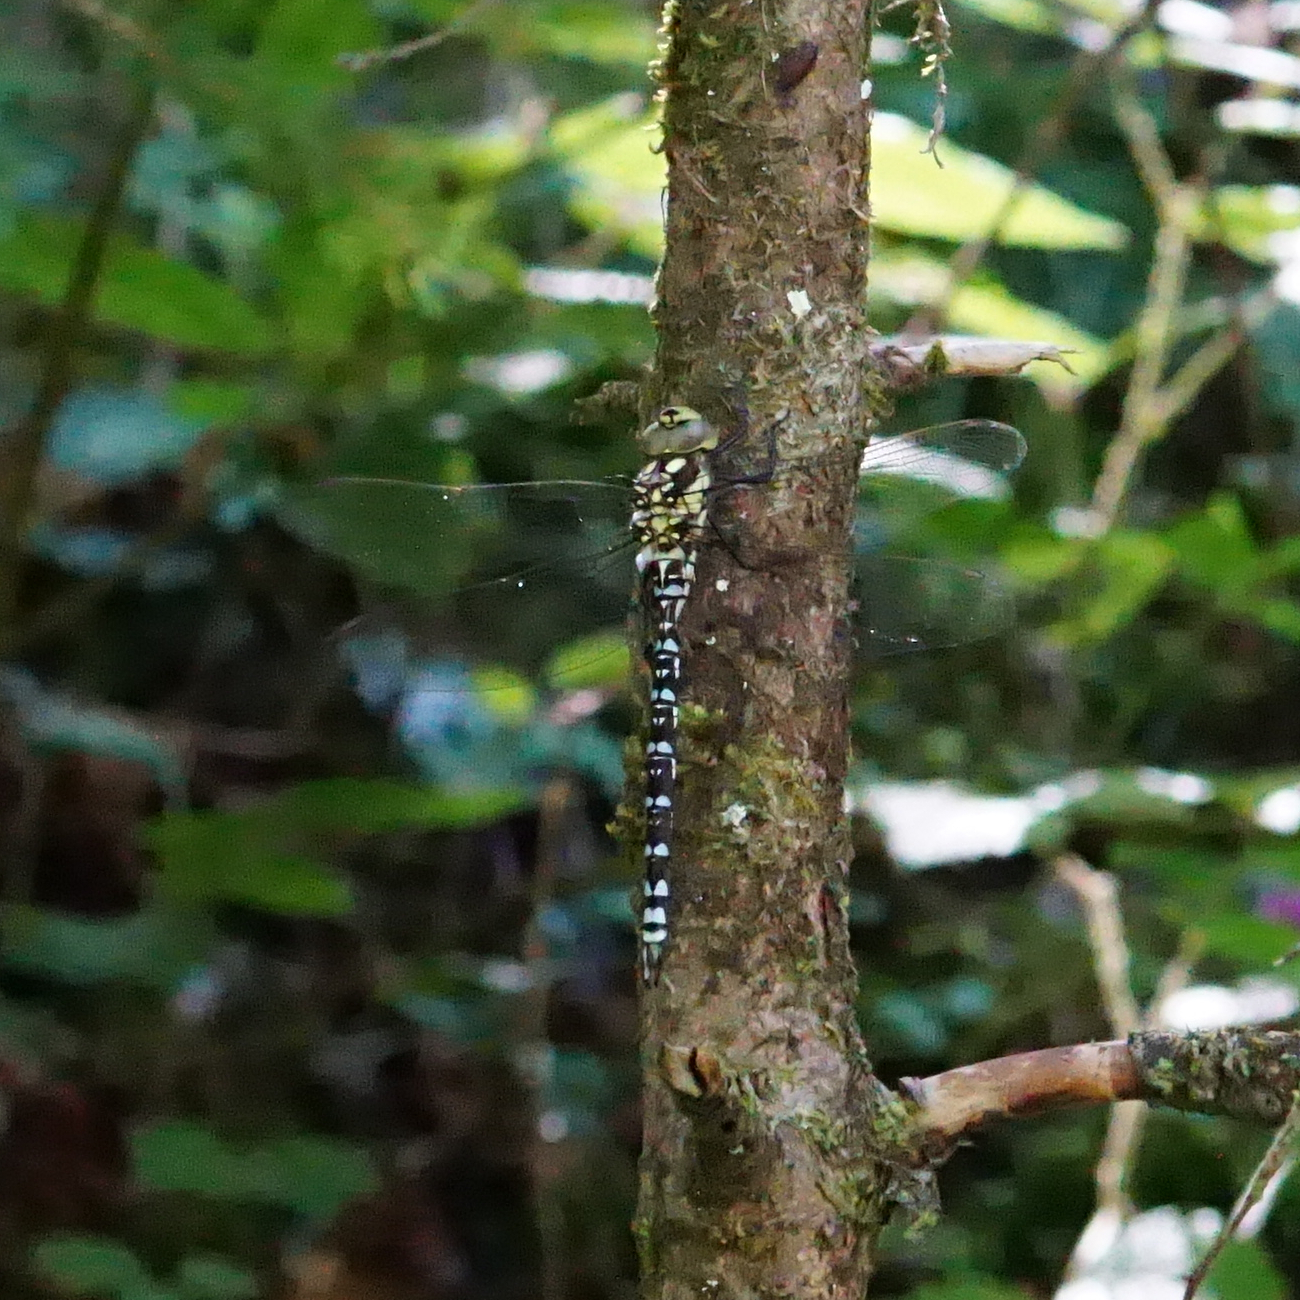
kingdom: Animalia
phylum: Arthropoda
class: Insecta
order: Odonata
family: Aeshnidae
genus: Aeshna
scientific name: Aeshna cyanea
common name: Southern hawker
